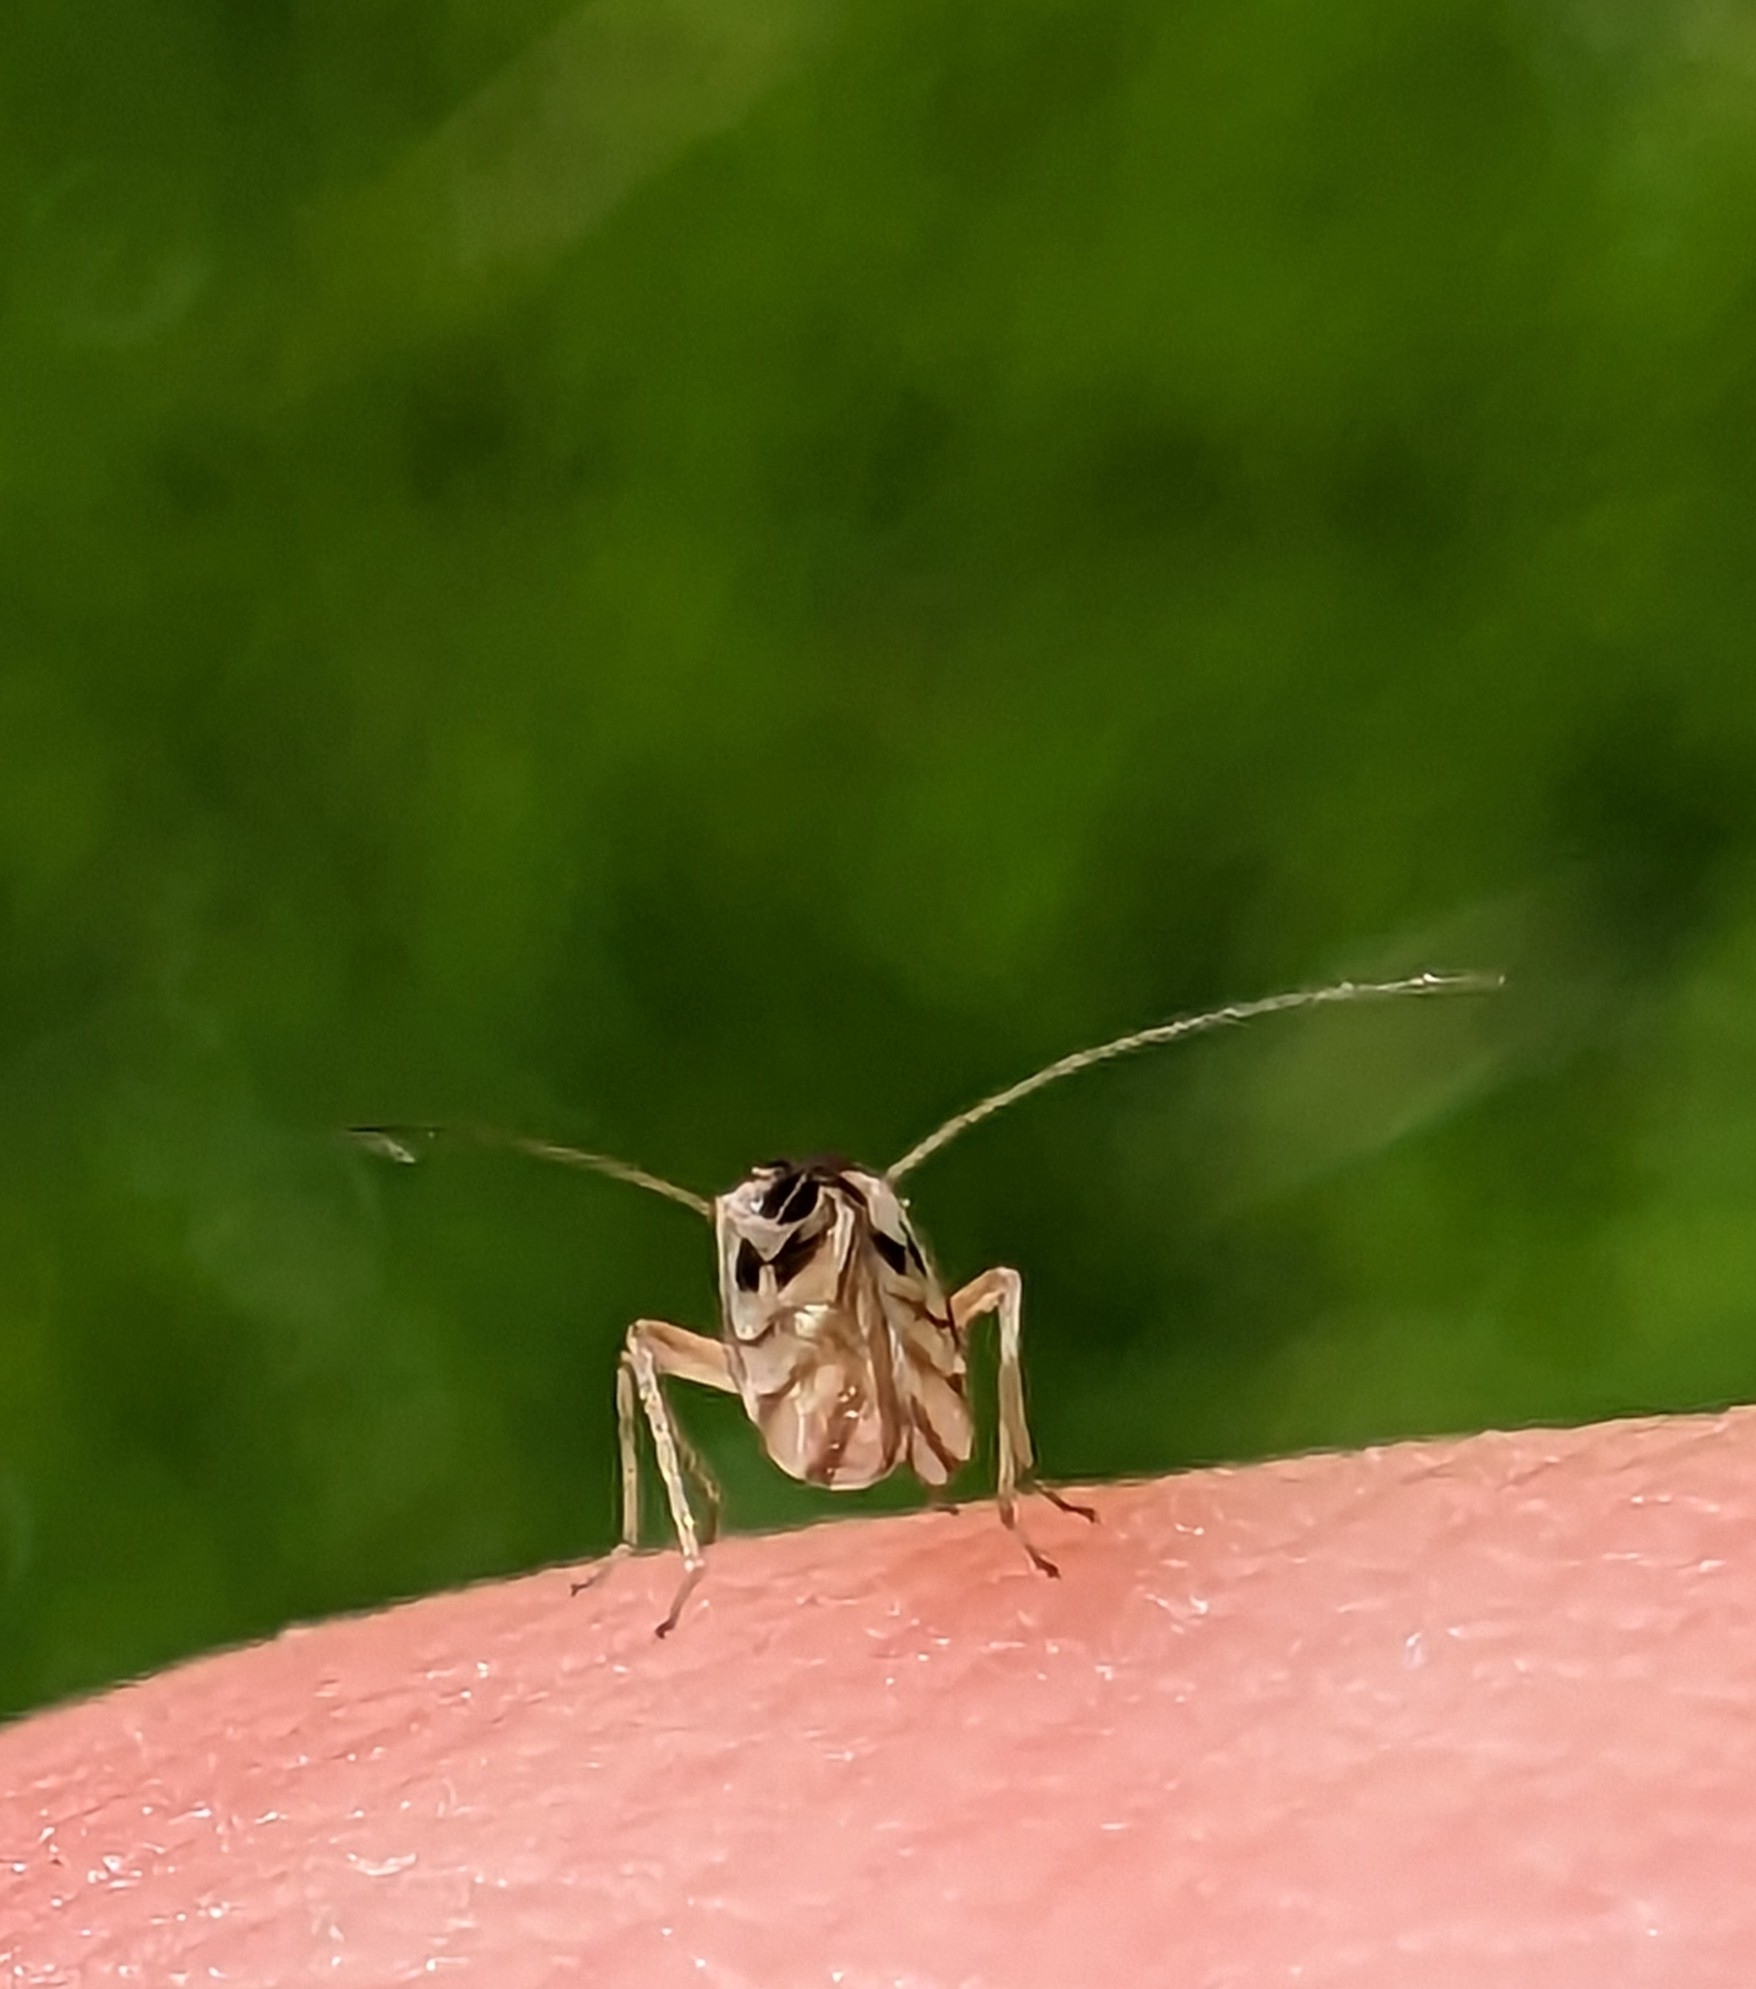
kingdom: Animalia
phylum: Arthropoda
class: Insecta
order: Psocodea
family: Stenopsocidae
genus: Graphopsocus
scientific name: Graphopsocus cruciatus
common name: Lizard bark louse
